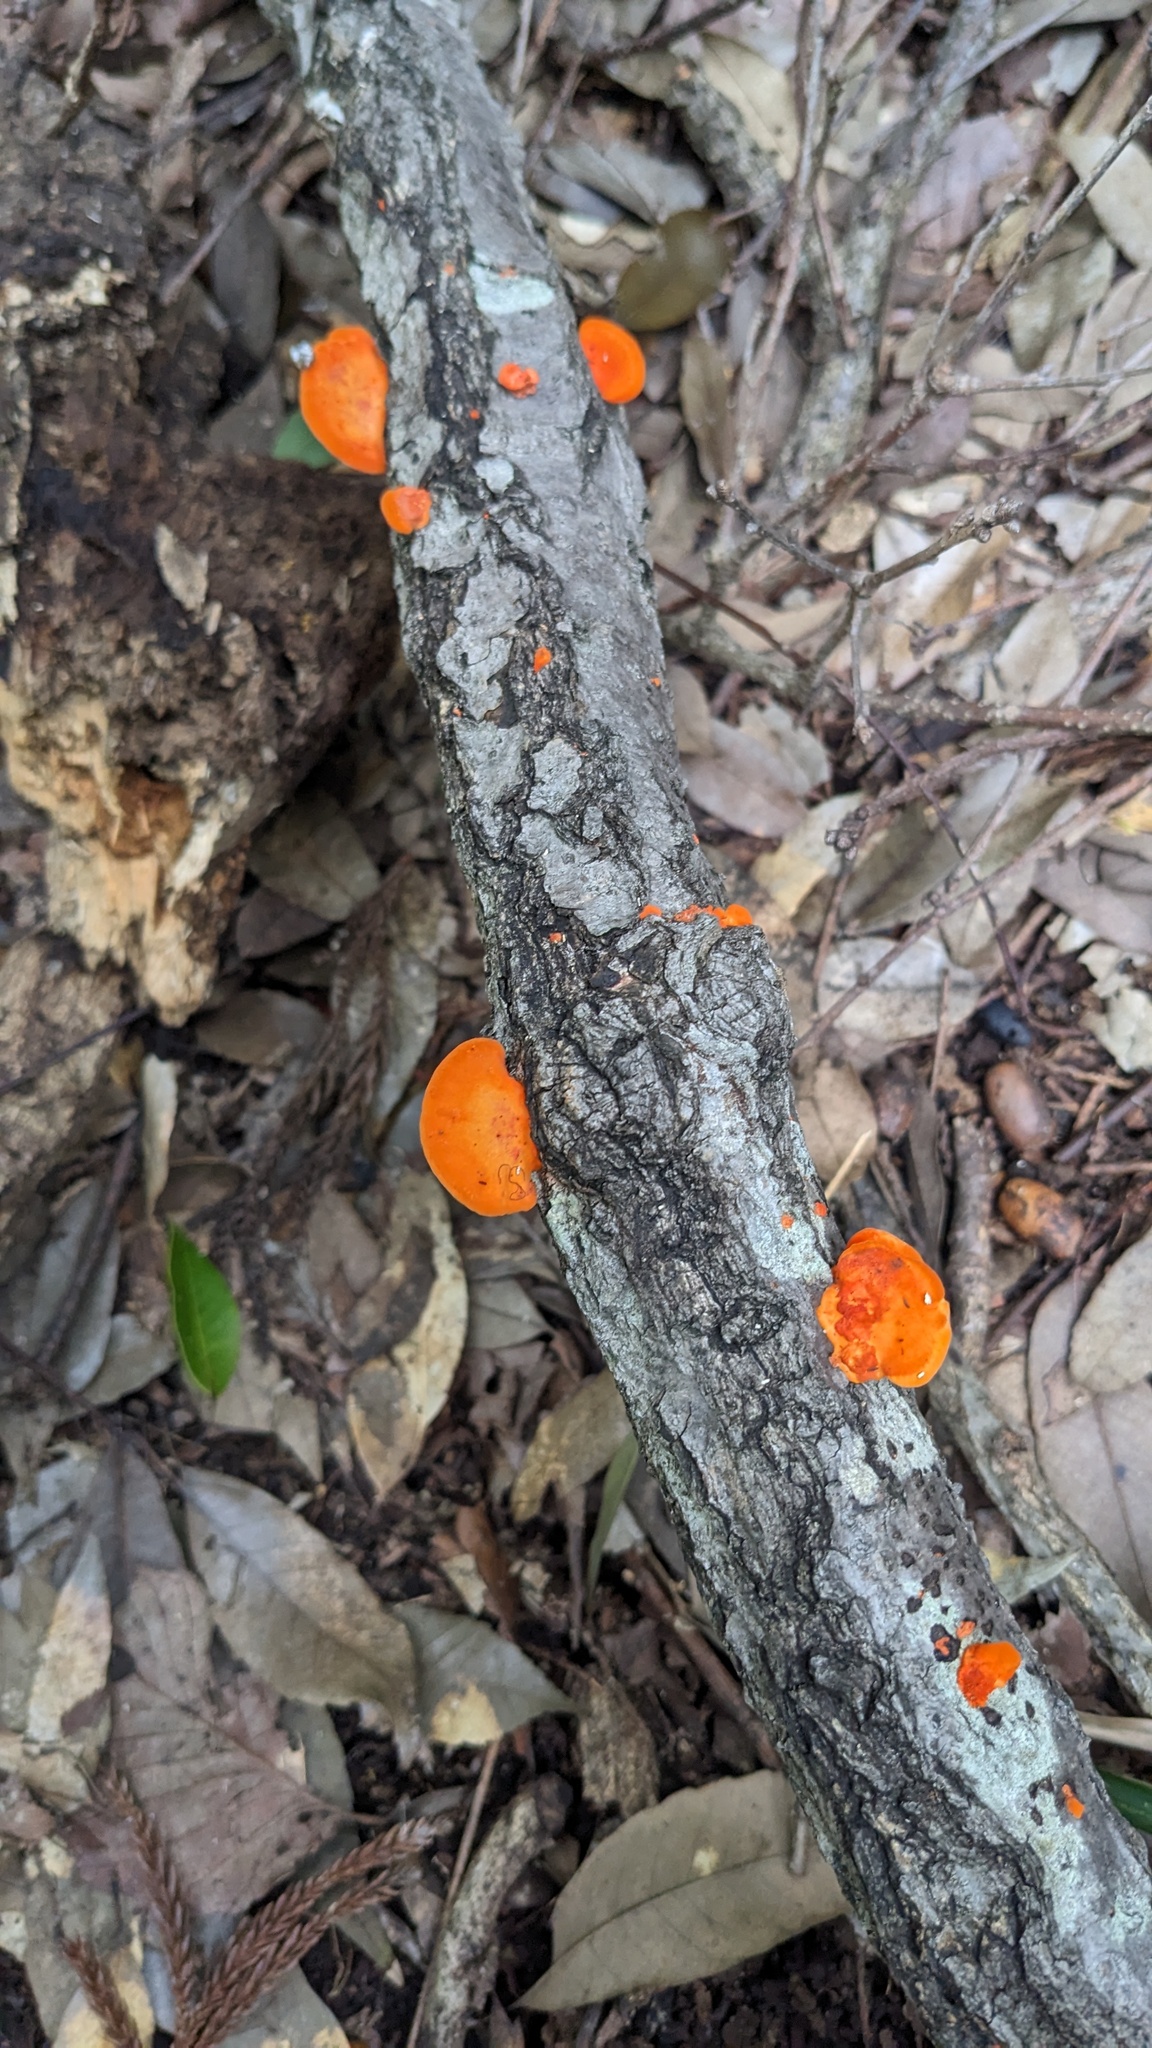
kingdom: Fungi
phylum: Basidiomycota
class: Agaricomycetes
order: Polyporales
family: Polyporaceae
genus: Trametes
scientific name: Trametes coccinea
